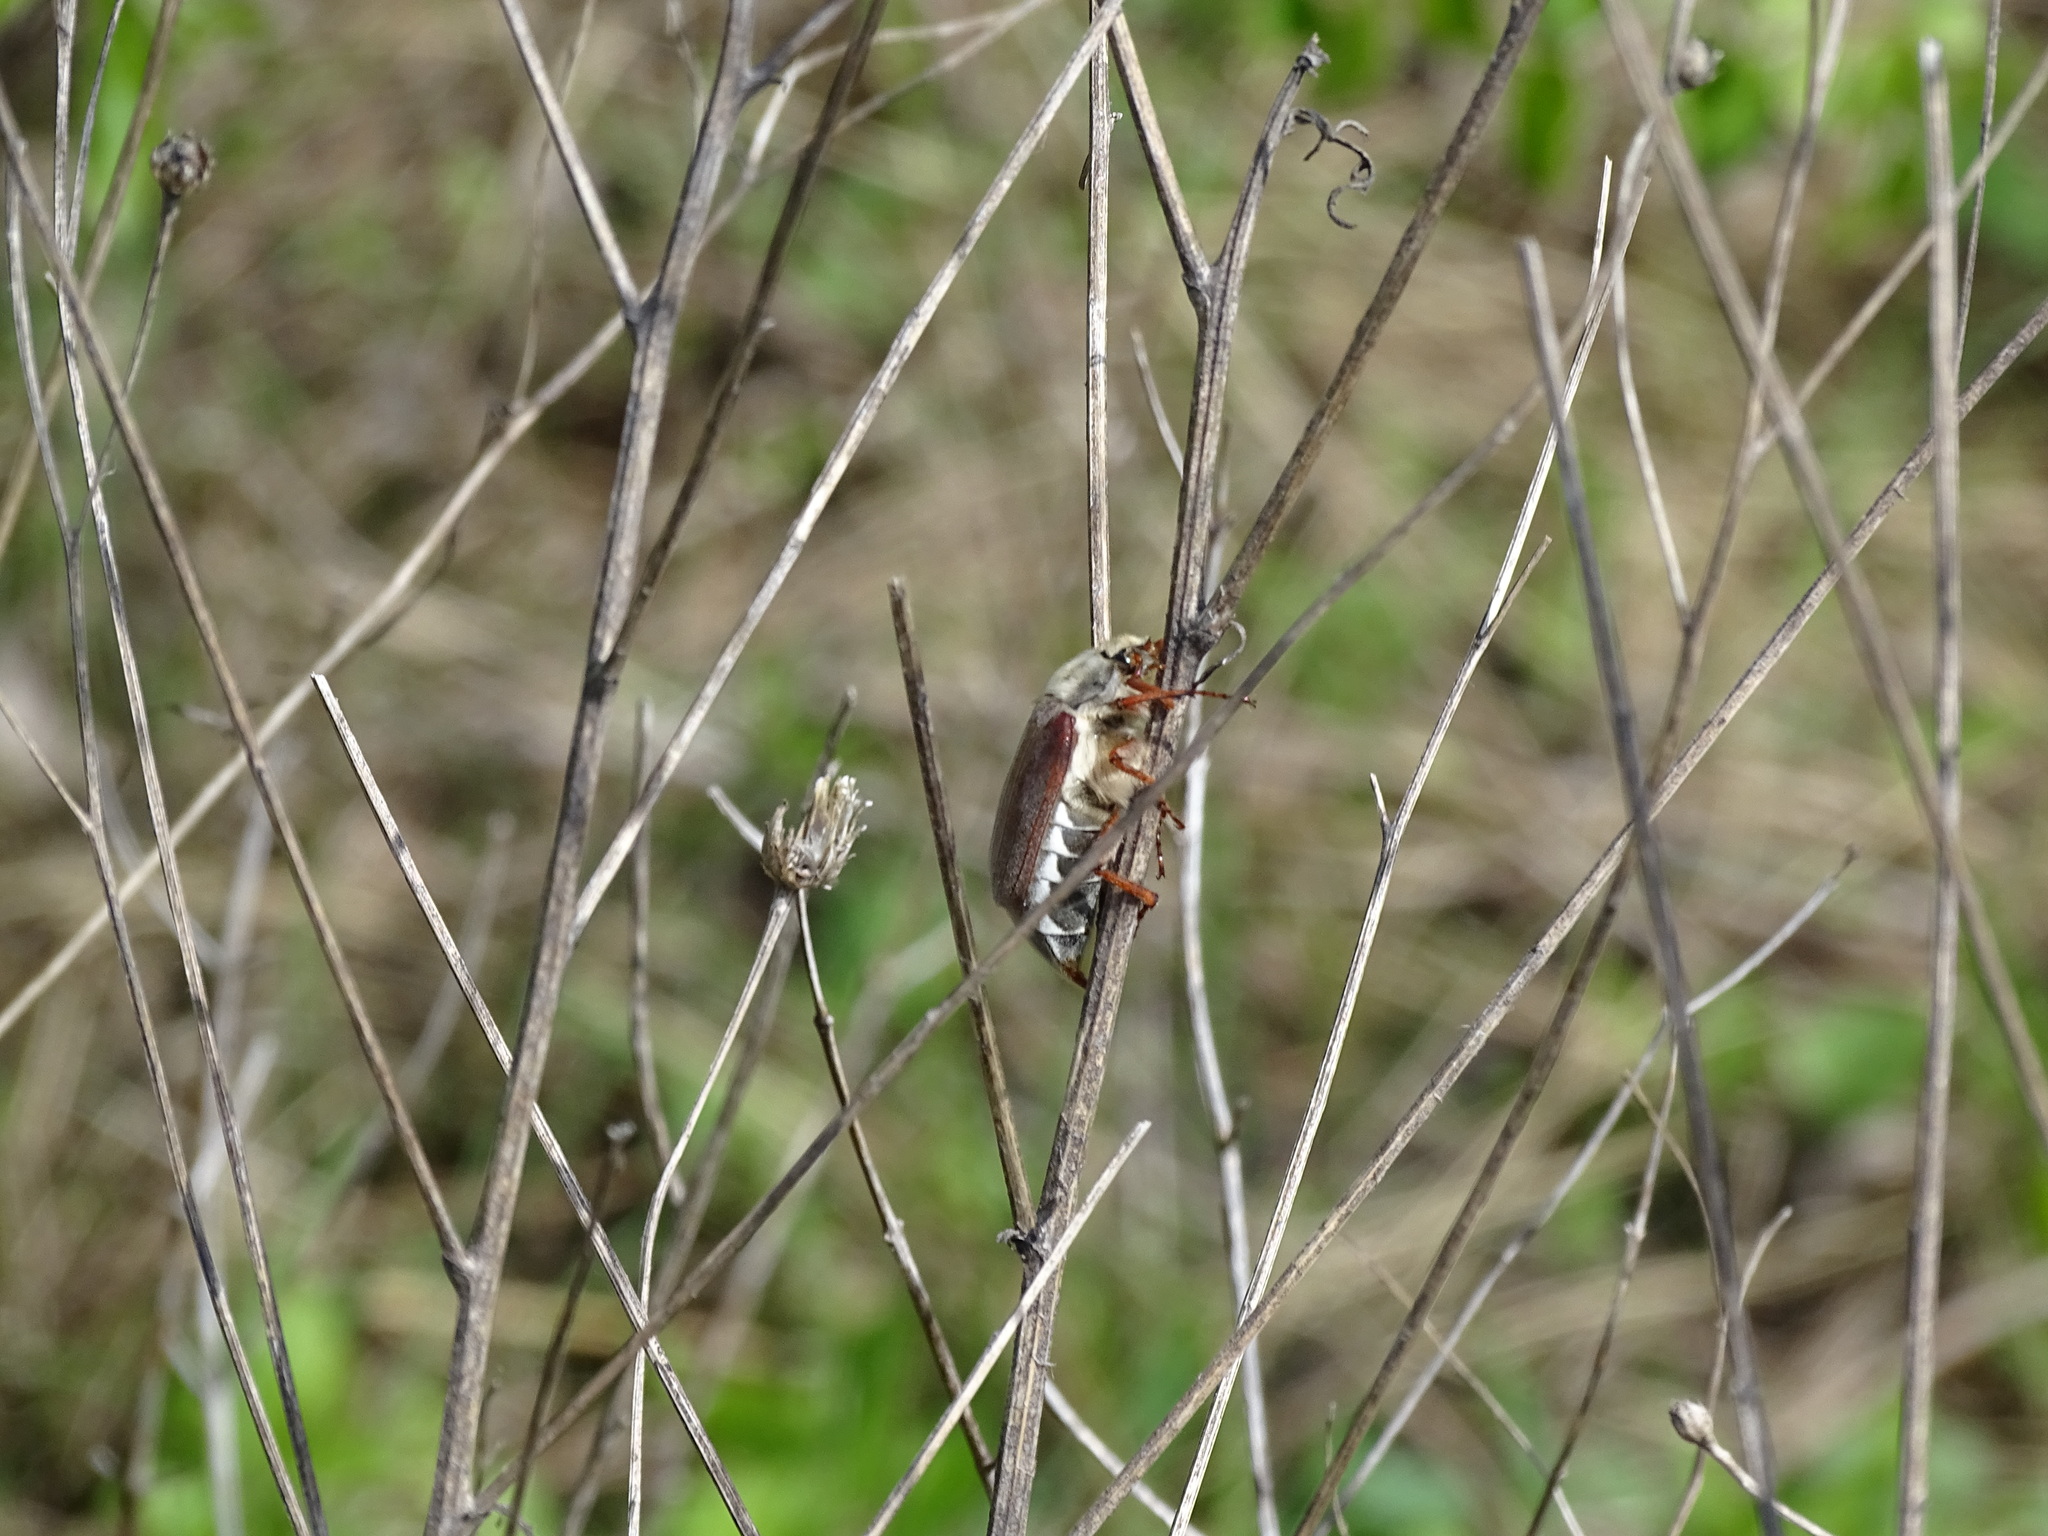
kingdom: Animalia
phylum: Arthropoda
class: Insecta
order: Coleoptera
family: Scarabaeidae
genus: Melolontha
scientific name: Melolontha melolontha
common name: Cockchafer maybeetle
